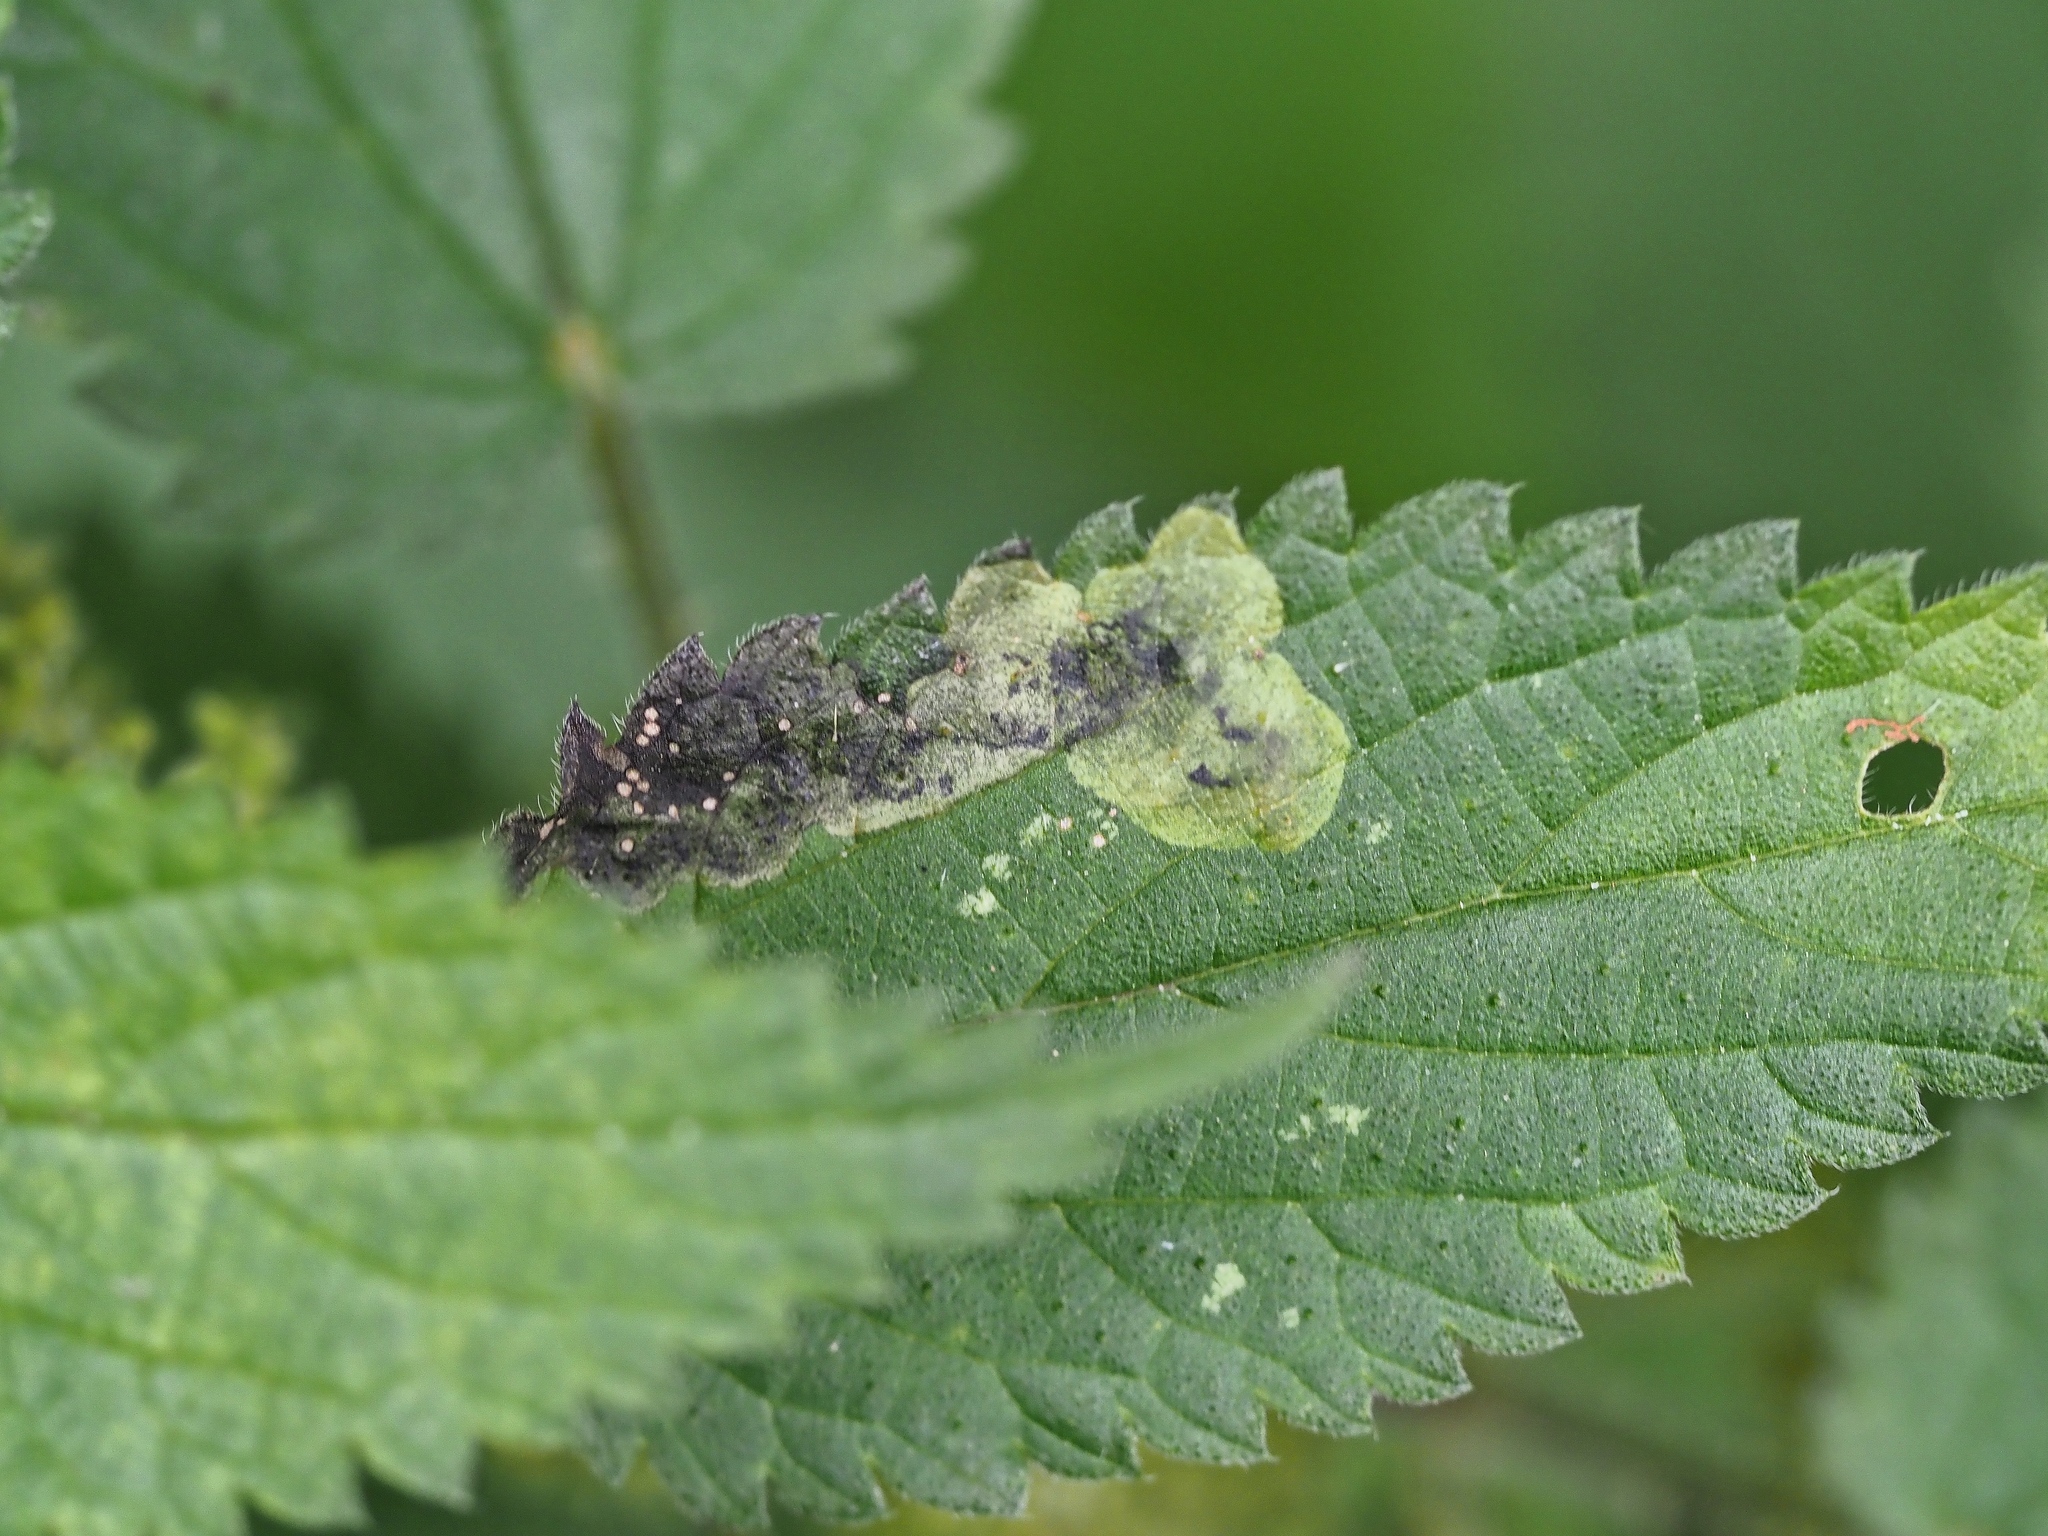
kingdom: Animalia
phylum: Arthropoda
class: Insecta
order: Diptera
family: Agromyzidae
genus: Agromyza
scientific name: Agromyza anthracina
